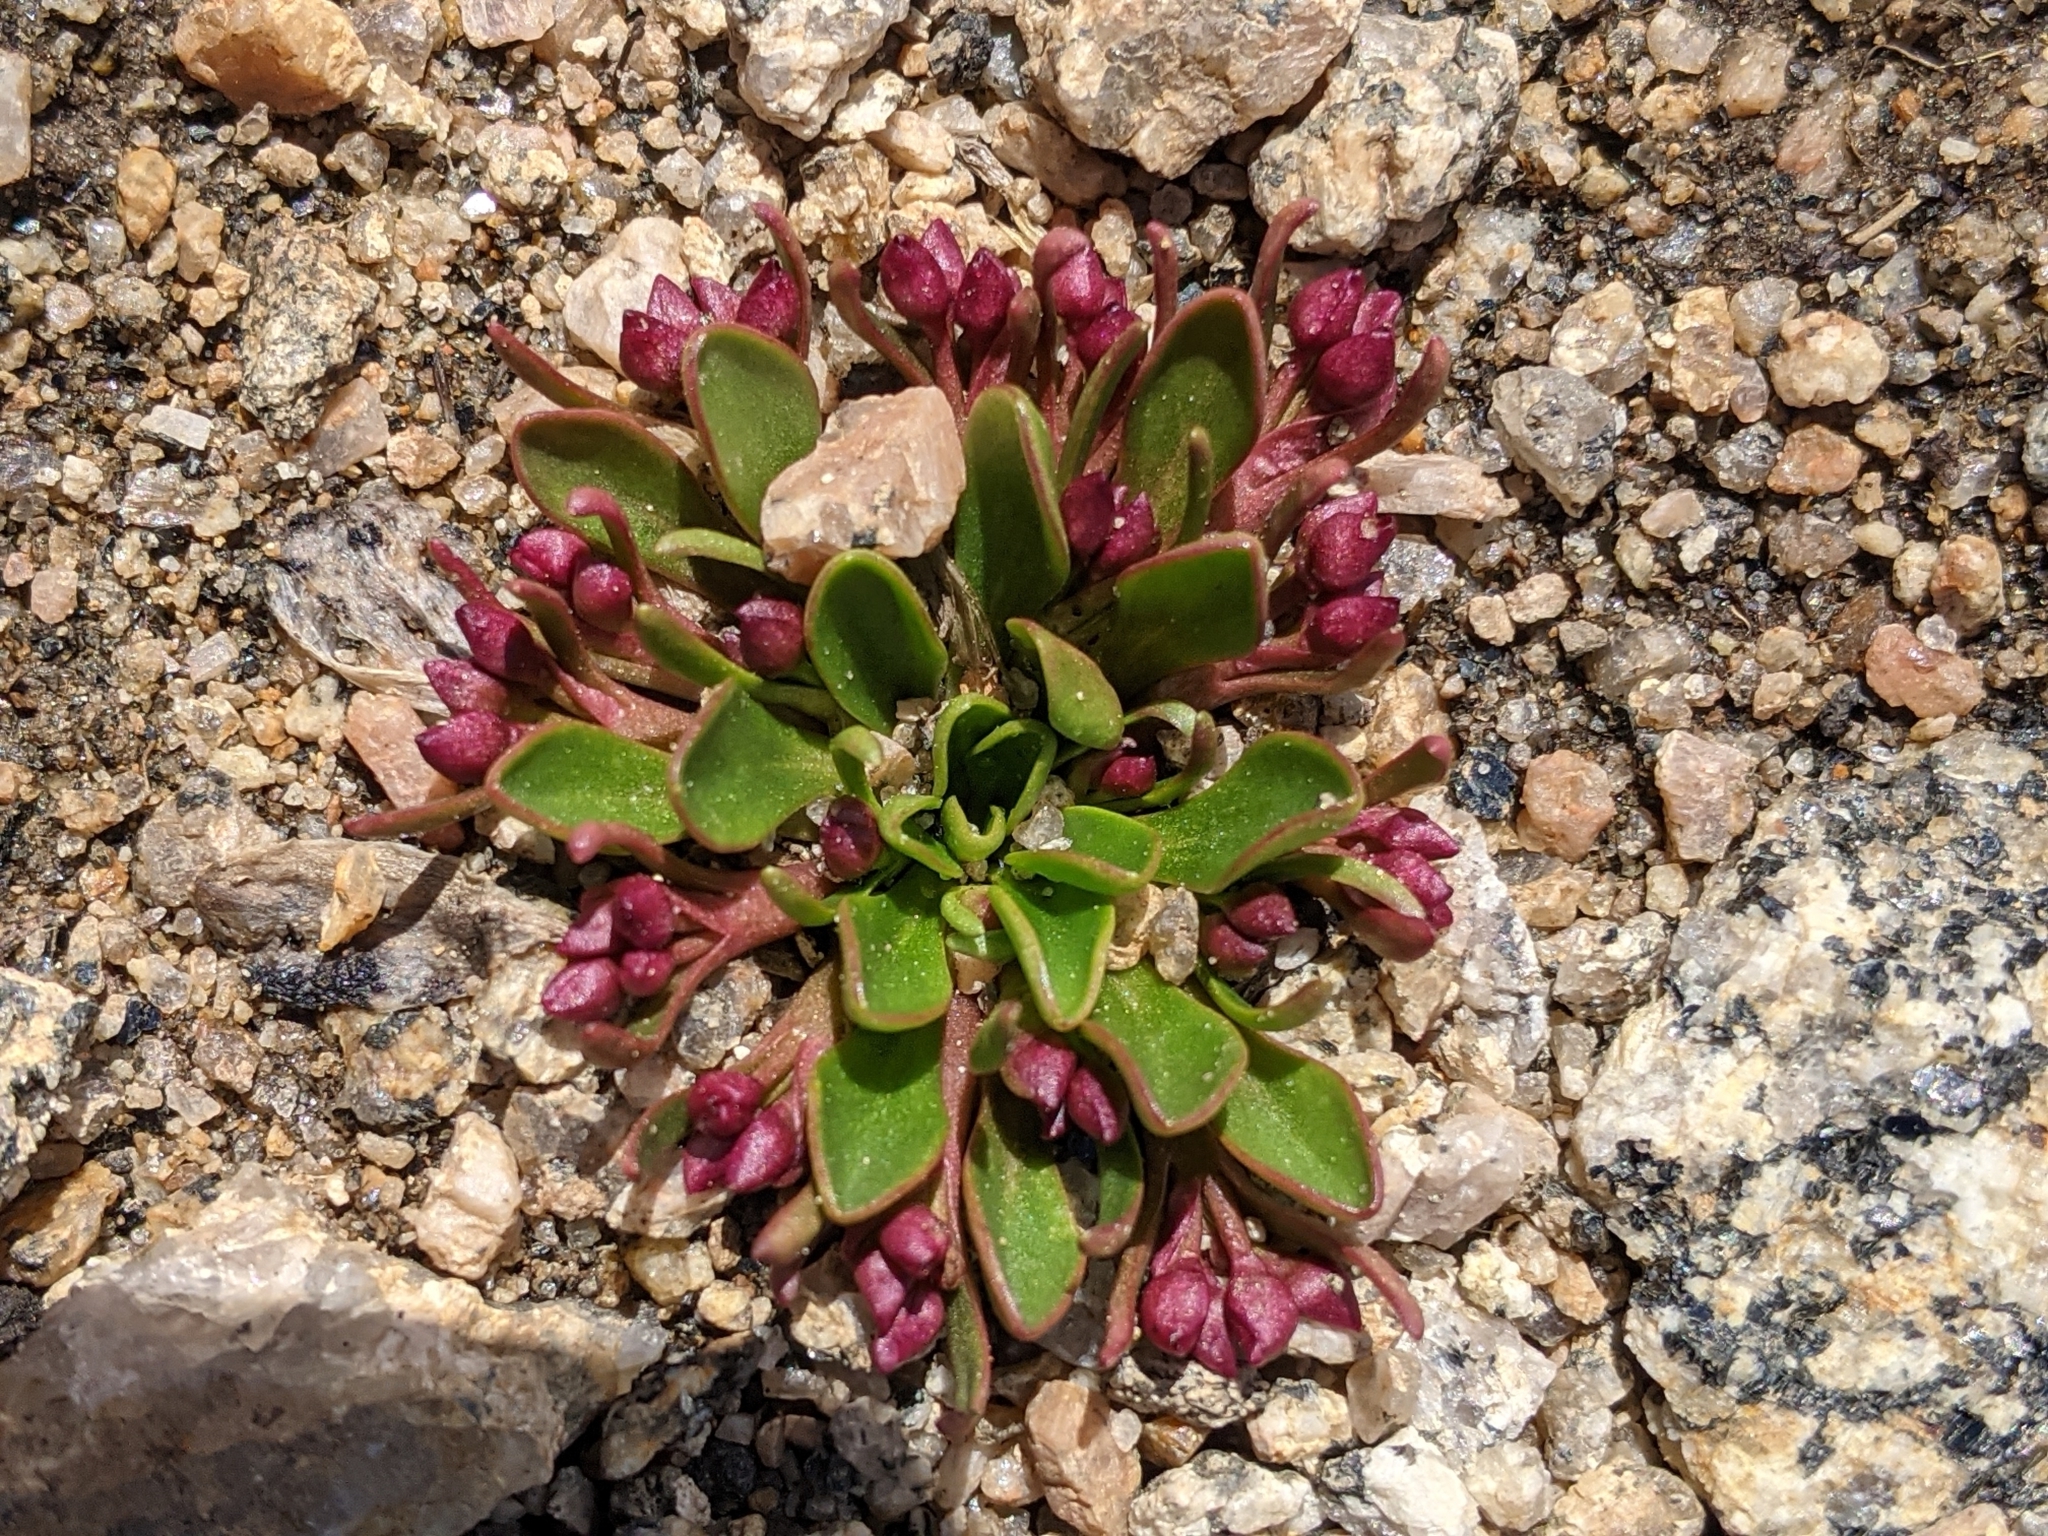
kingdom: Plantae
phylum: Tracheophyta
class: Magnoliopsida
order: Caryophyllales
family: Montiaceae
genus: Claytonia
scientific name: Claytonia megarhiza
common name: Alpine spring beauty
